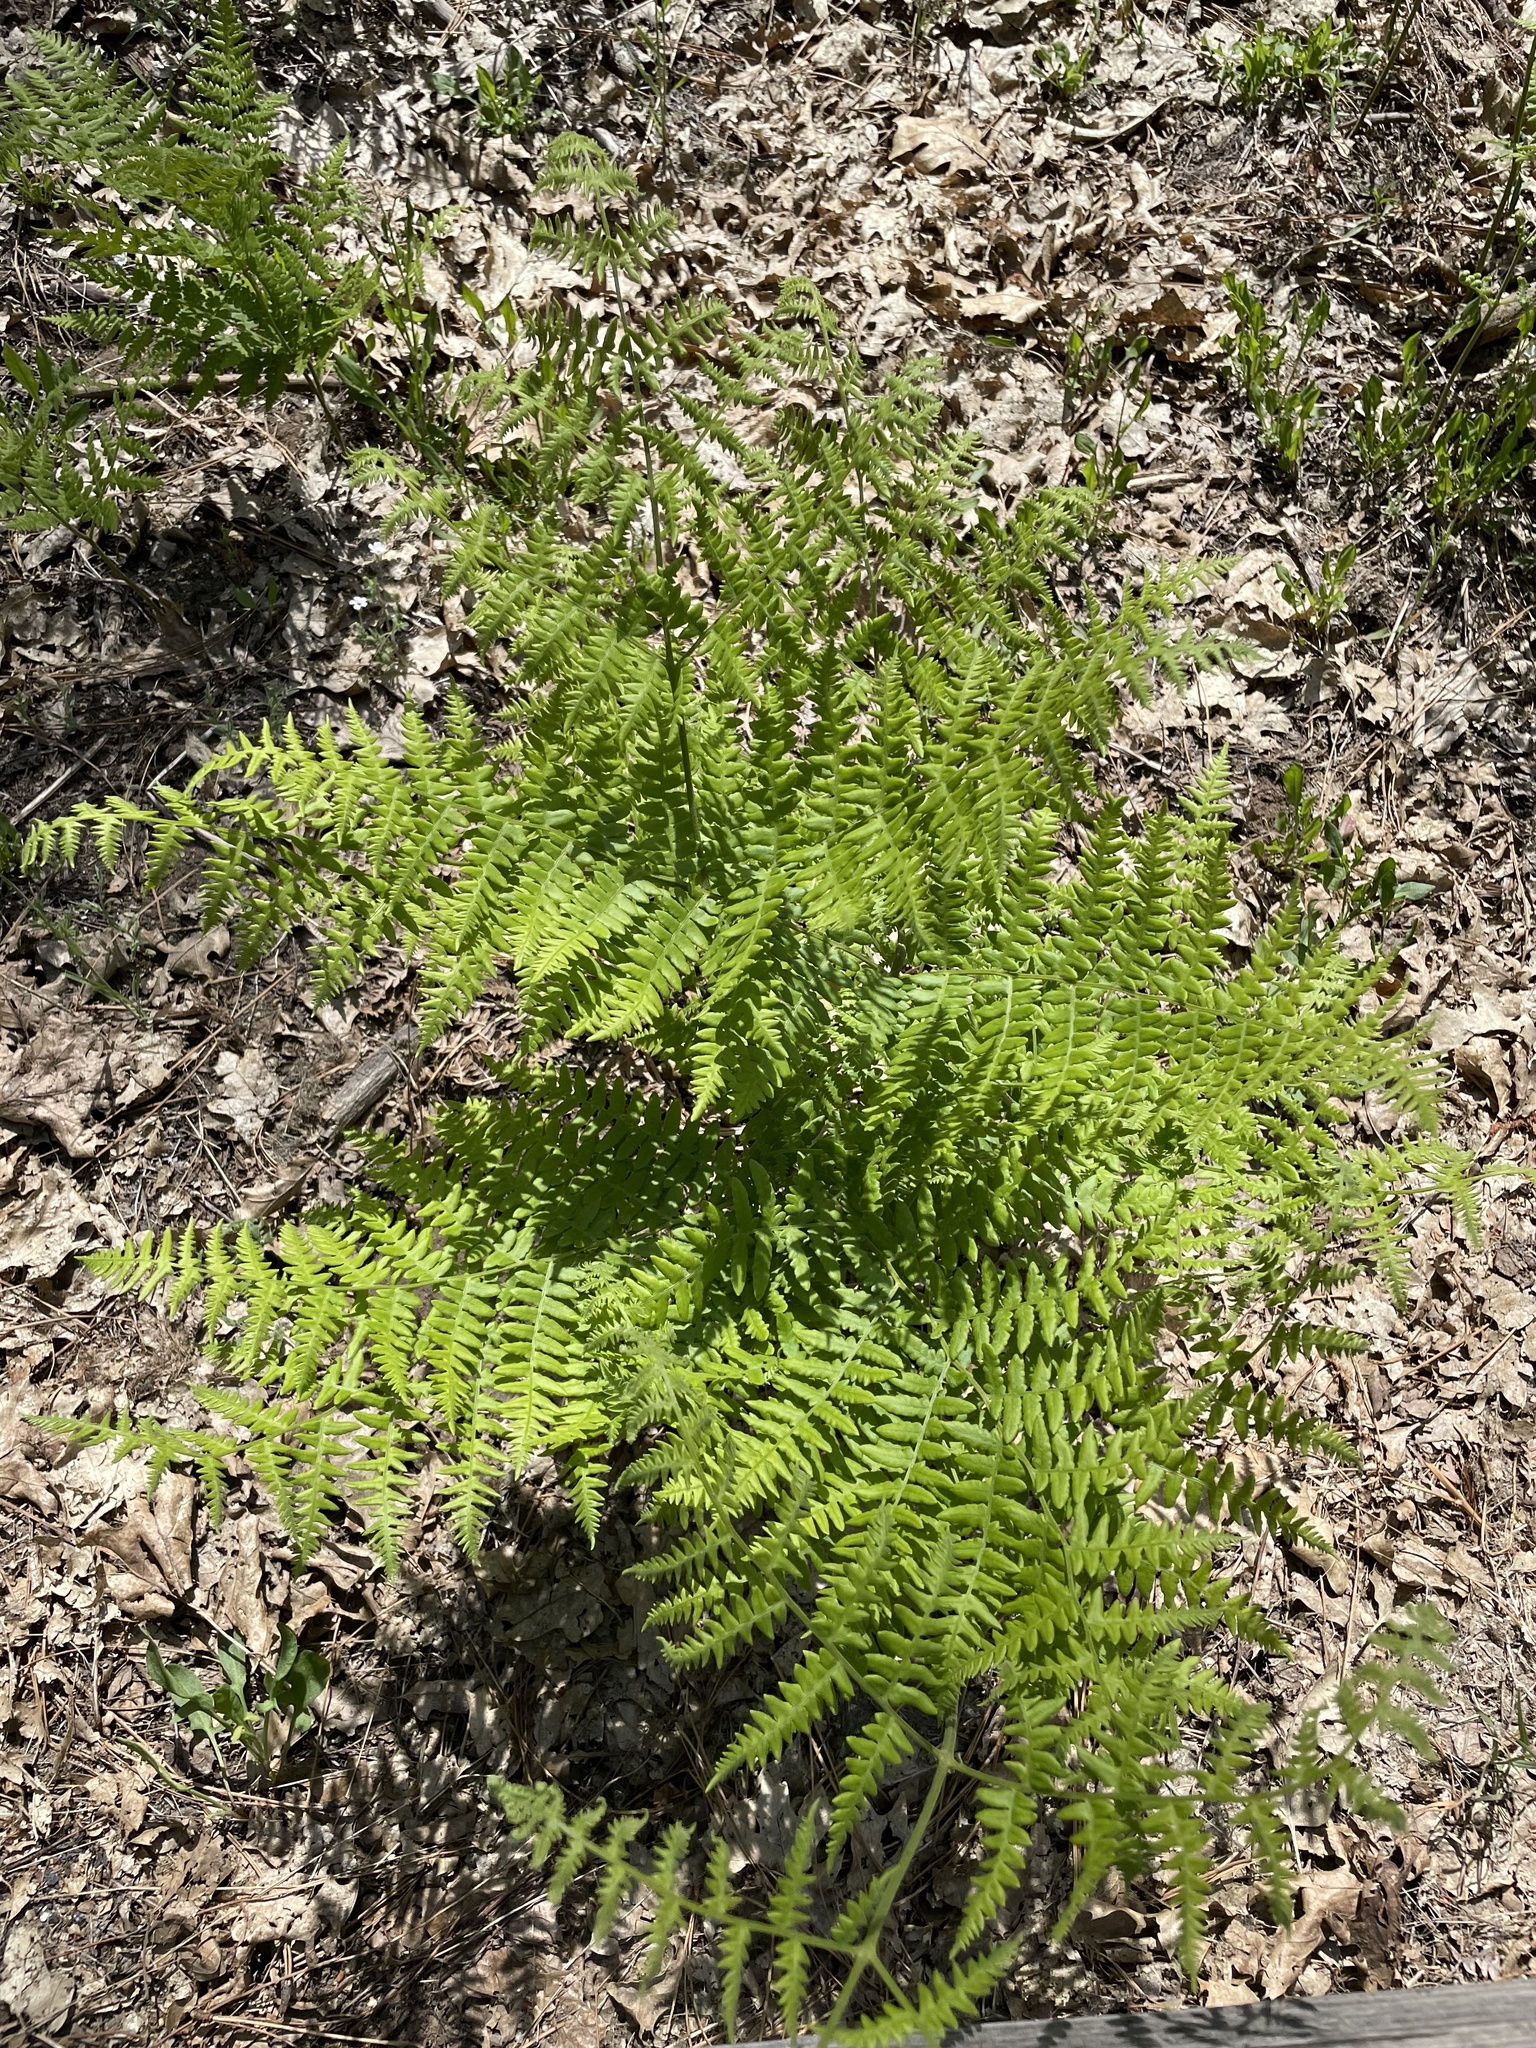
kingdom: Plantae
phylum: Tracheophyta
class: Polypodiopsida
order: Polypodiales
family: Dennstaedtiaceae
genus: Pteridium
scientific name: Pteridium aquilinum
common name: Bracken
